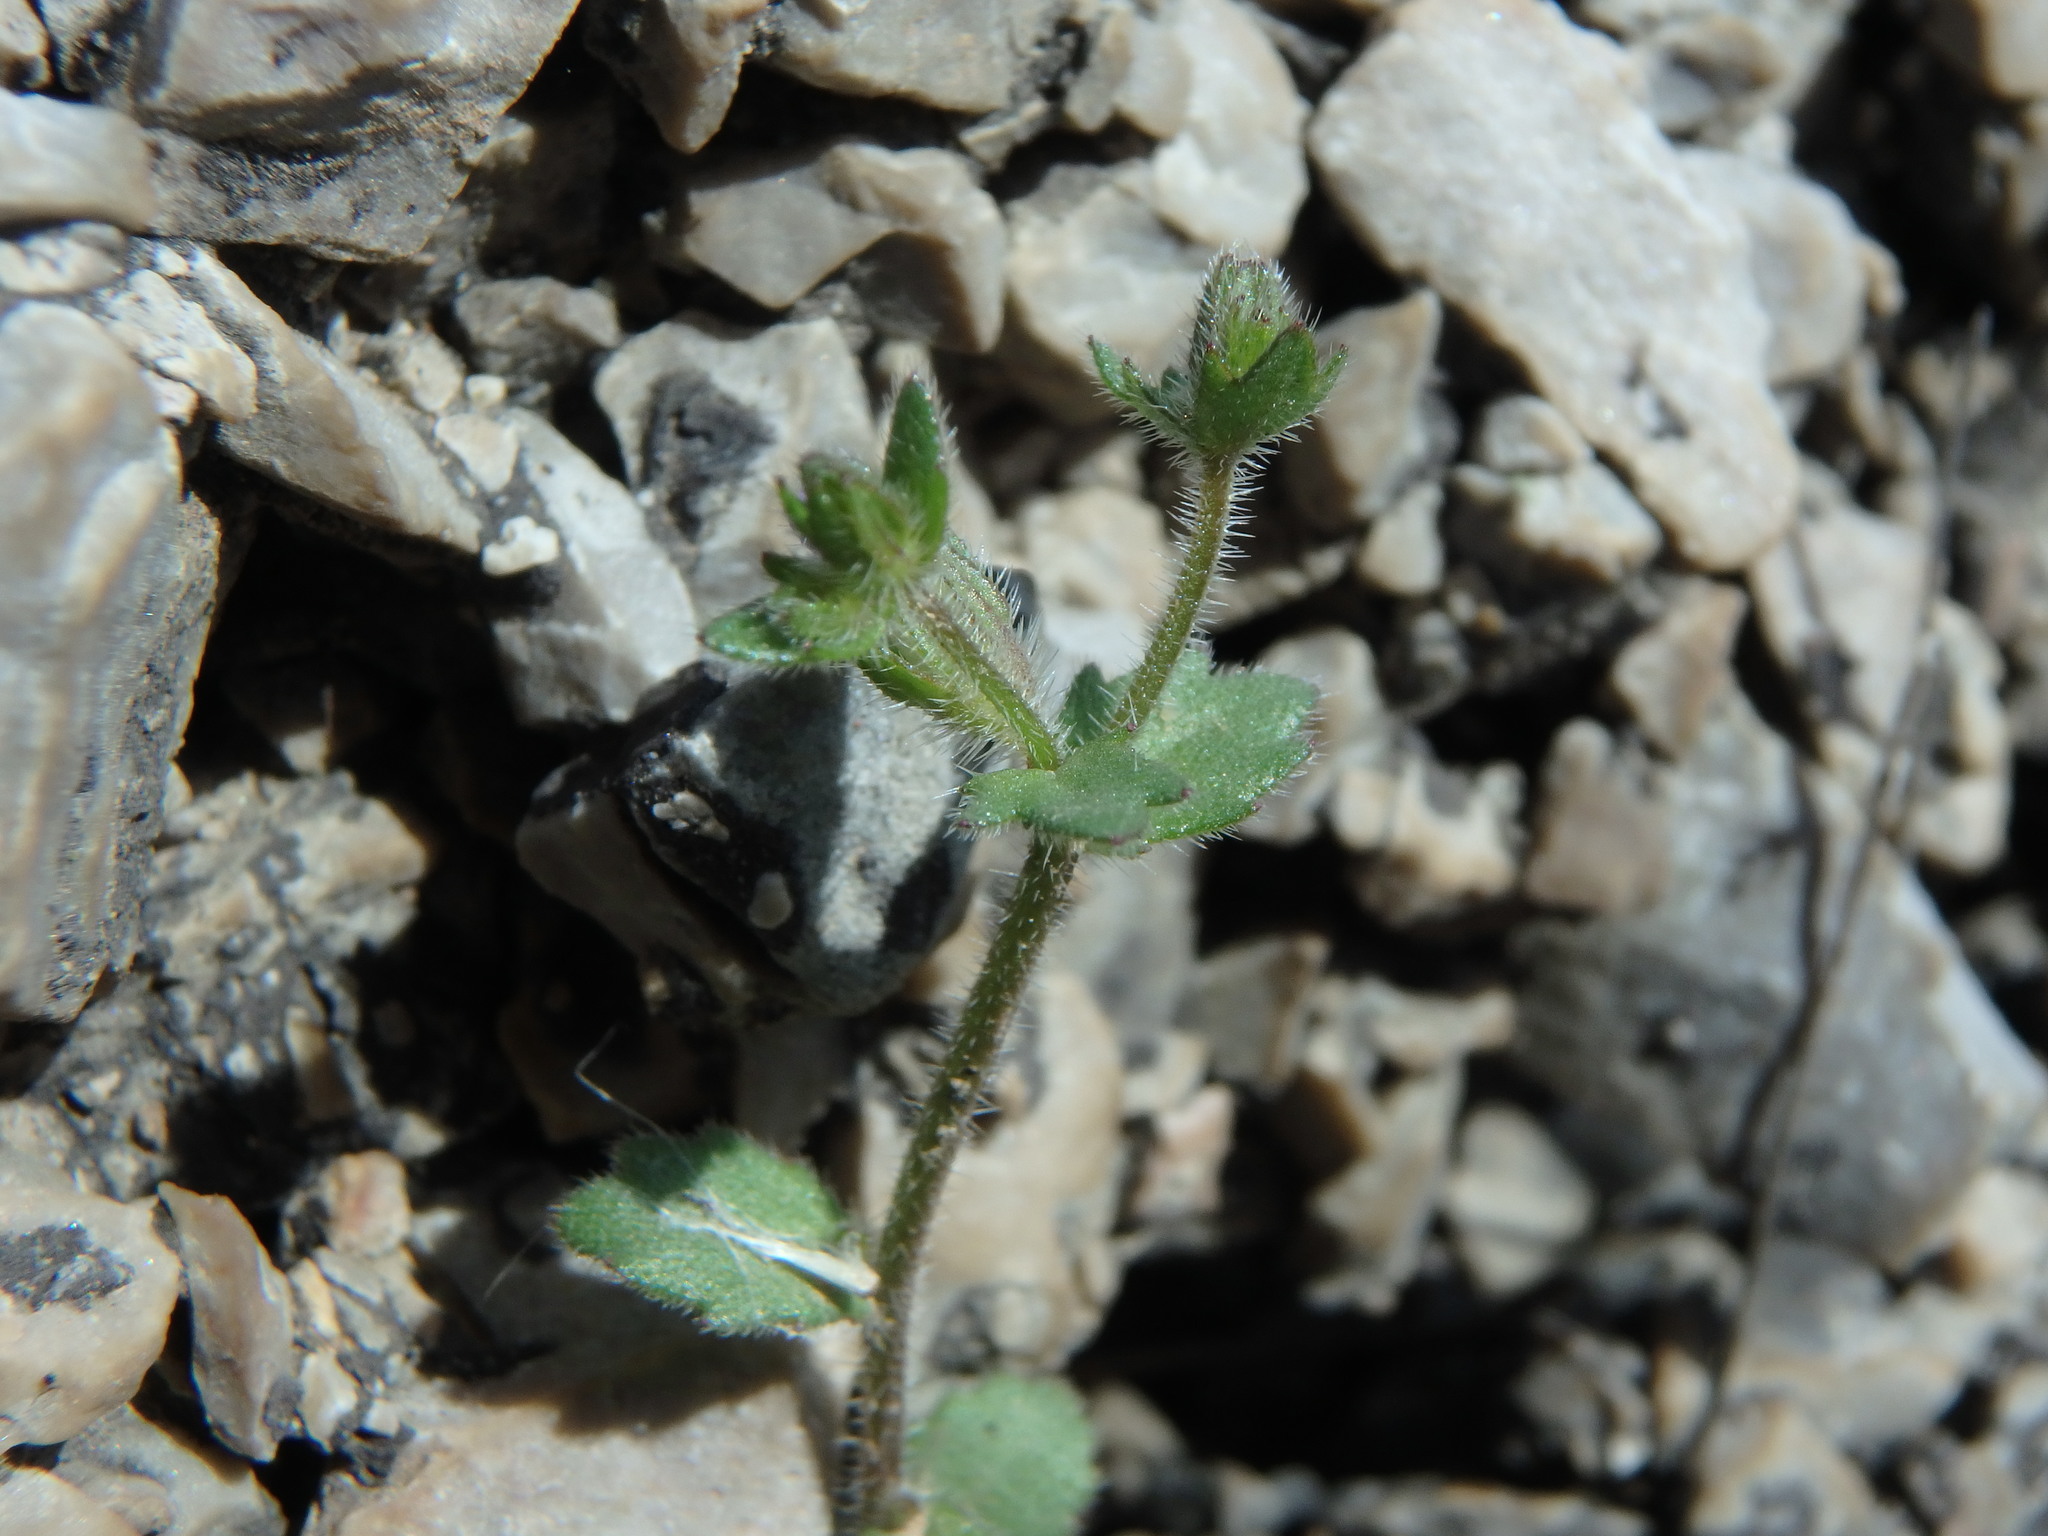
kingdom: Plantae
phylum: Tracheophyta
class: Magnoliopsida
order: Asterales
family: Campanulaceae
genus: Campanula
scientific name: Campanula erinus
